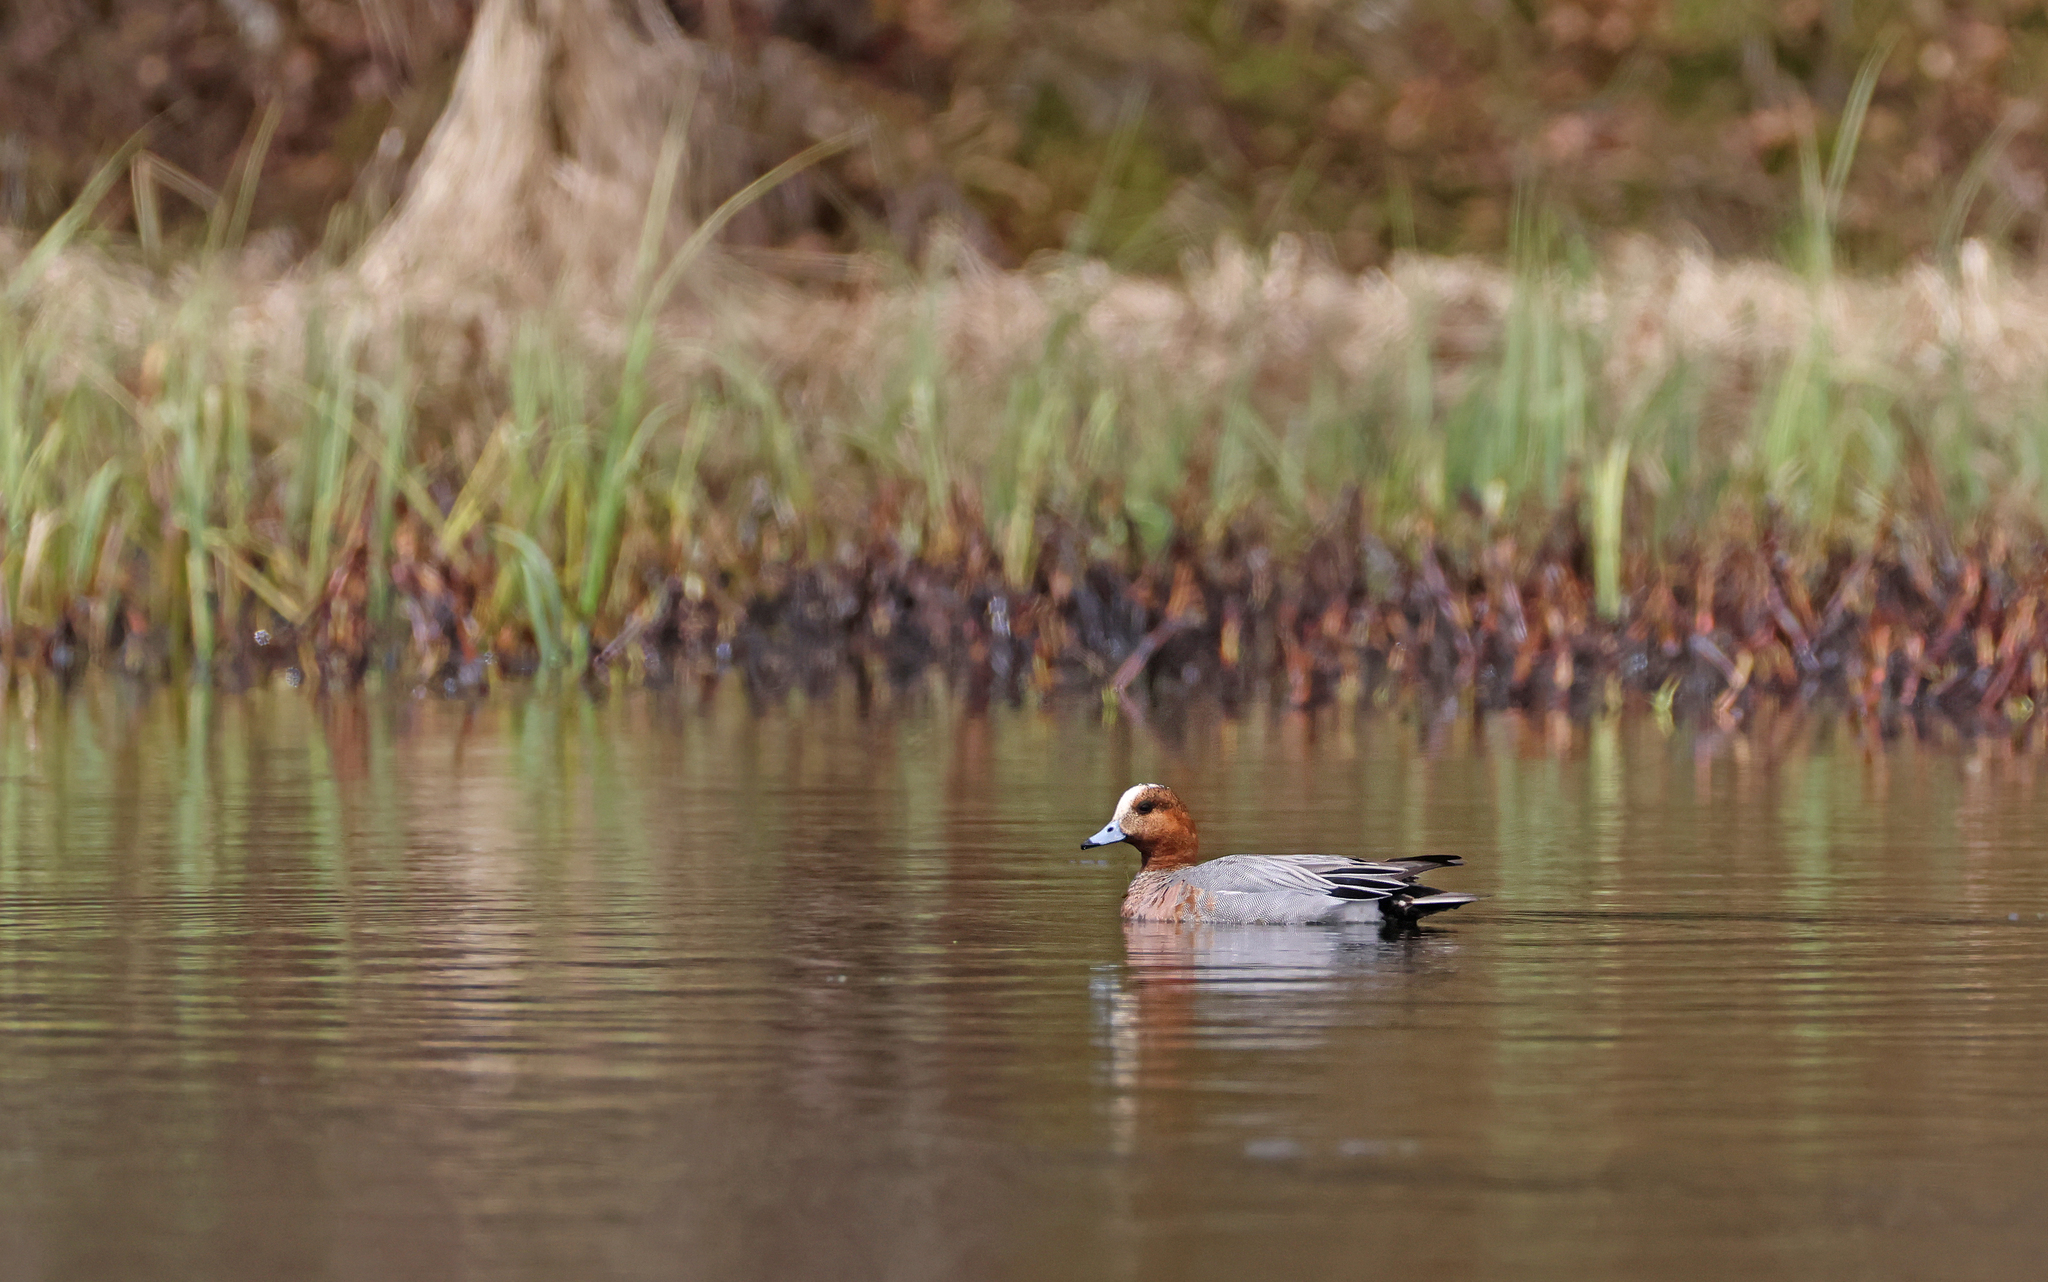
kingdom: Animalia
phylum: Chordata
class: Aves
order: Anseriformes
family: Anatidae
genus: Mareca
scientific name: Mareca penelope
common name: Eurasian wigeon
